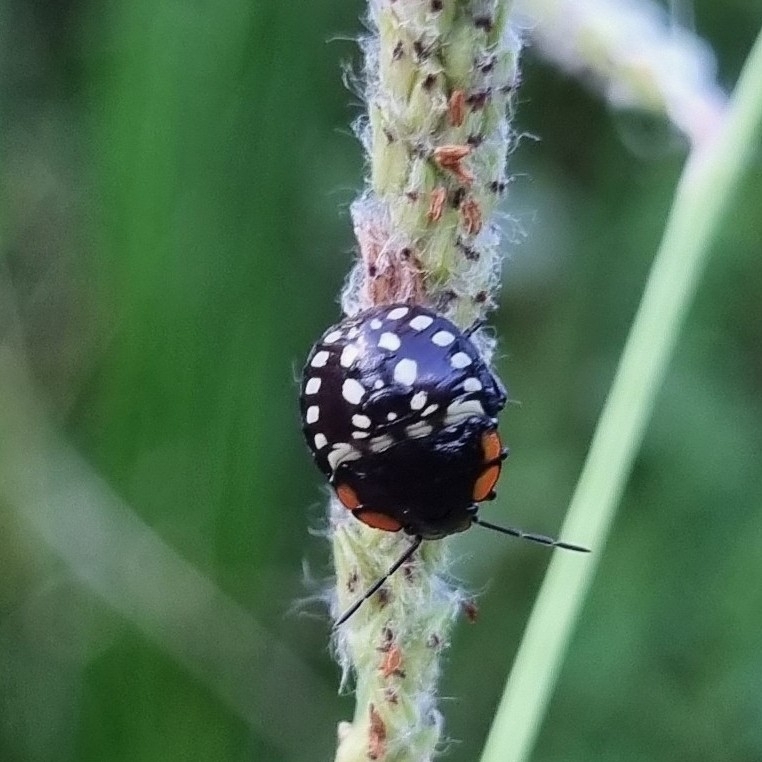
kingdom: Animalia
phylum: Arthropoda
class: Insecta
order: Hemiptera
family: Pentatomidae
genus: Nezara
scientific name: Nezara viridula
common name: Southern green stink bug
